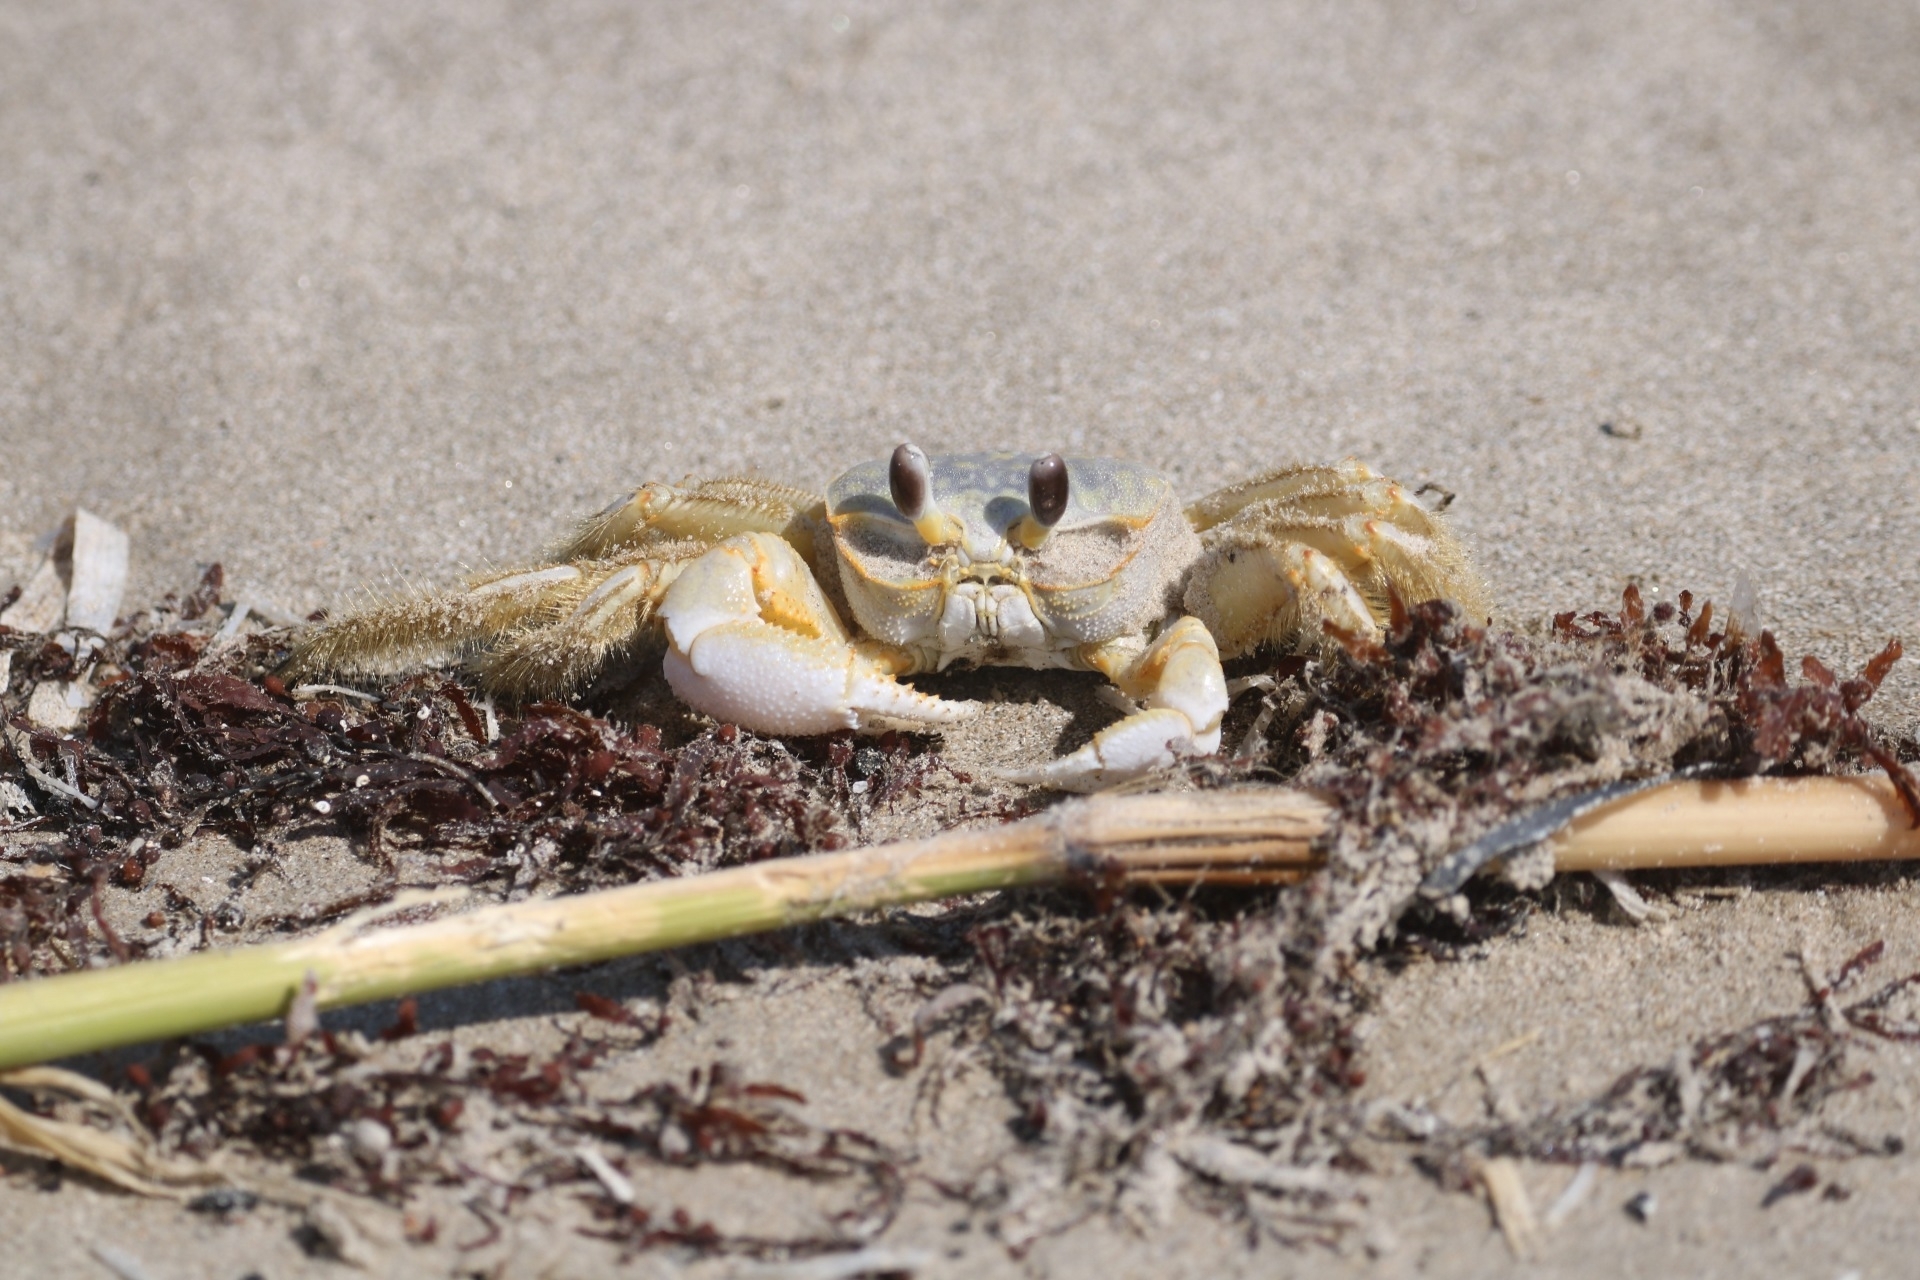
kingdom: Animalia
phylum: Arthropoda
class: Malacostraca
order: Decapoda
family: Ocypodidae
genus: Ocypode
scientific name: Ocypode quadrata
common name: Ghost crab
